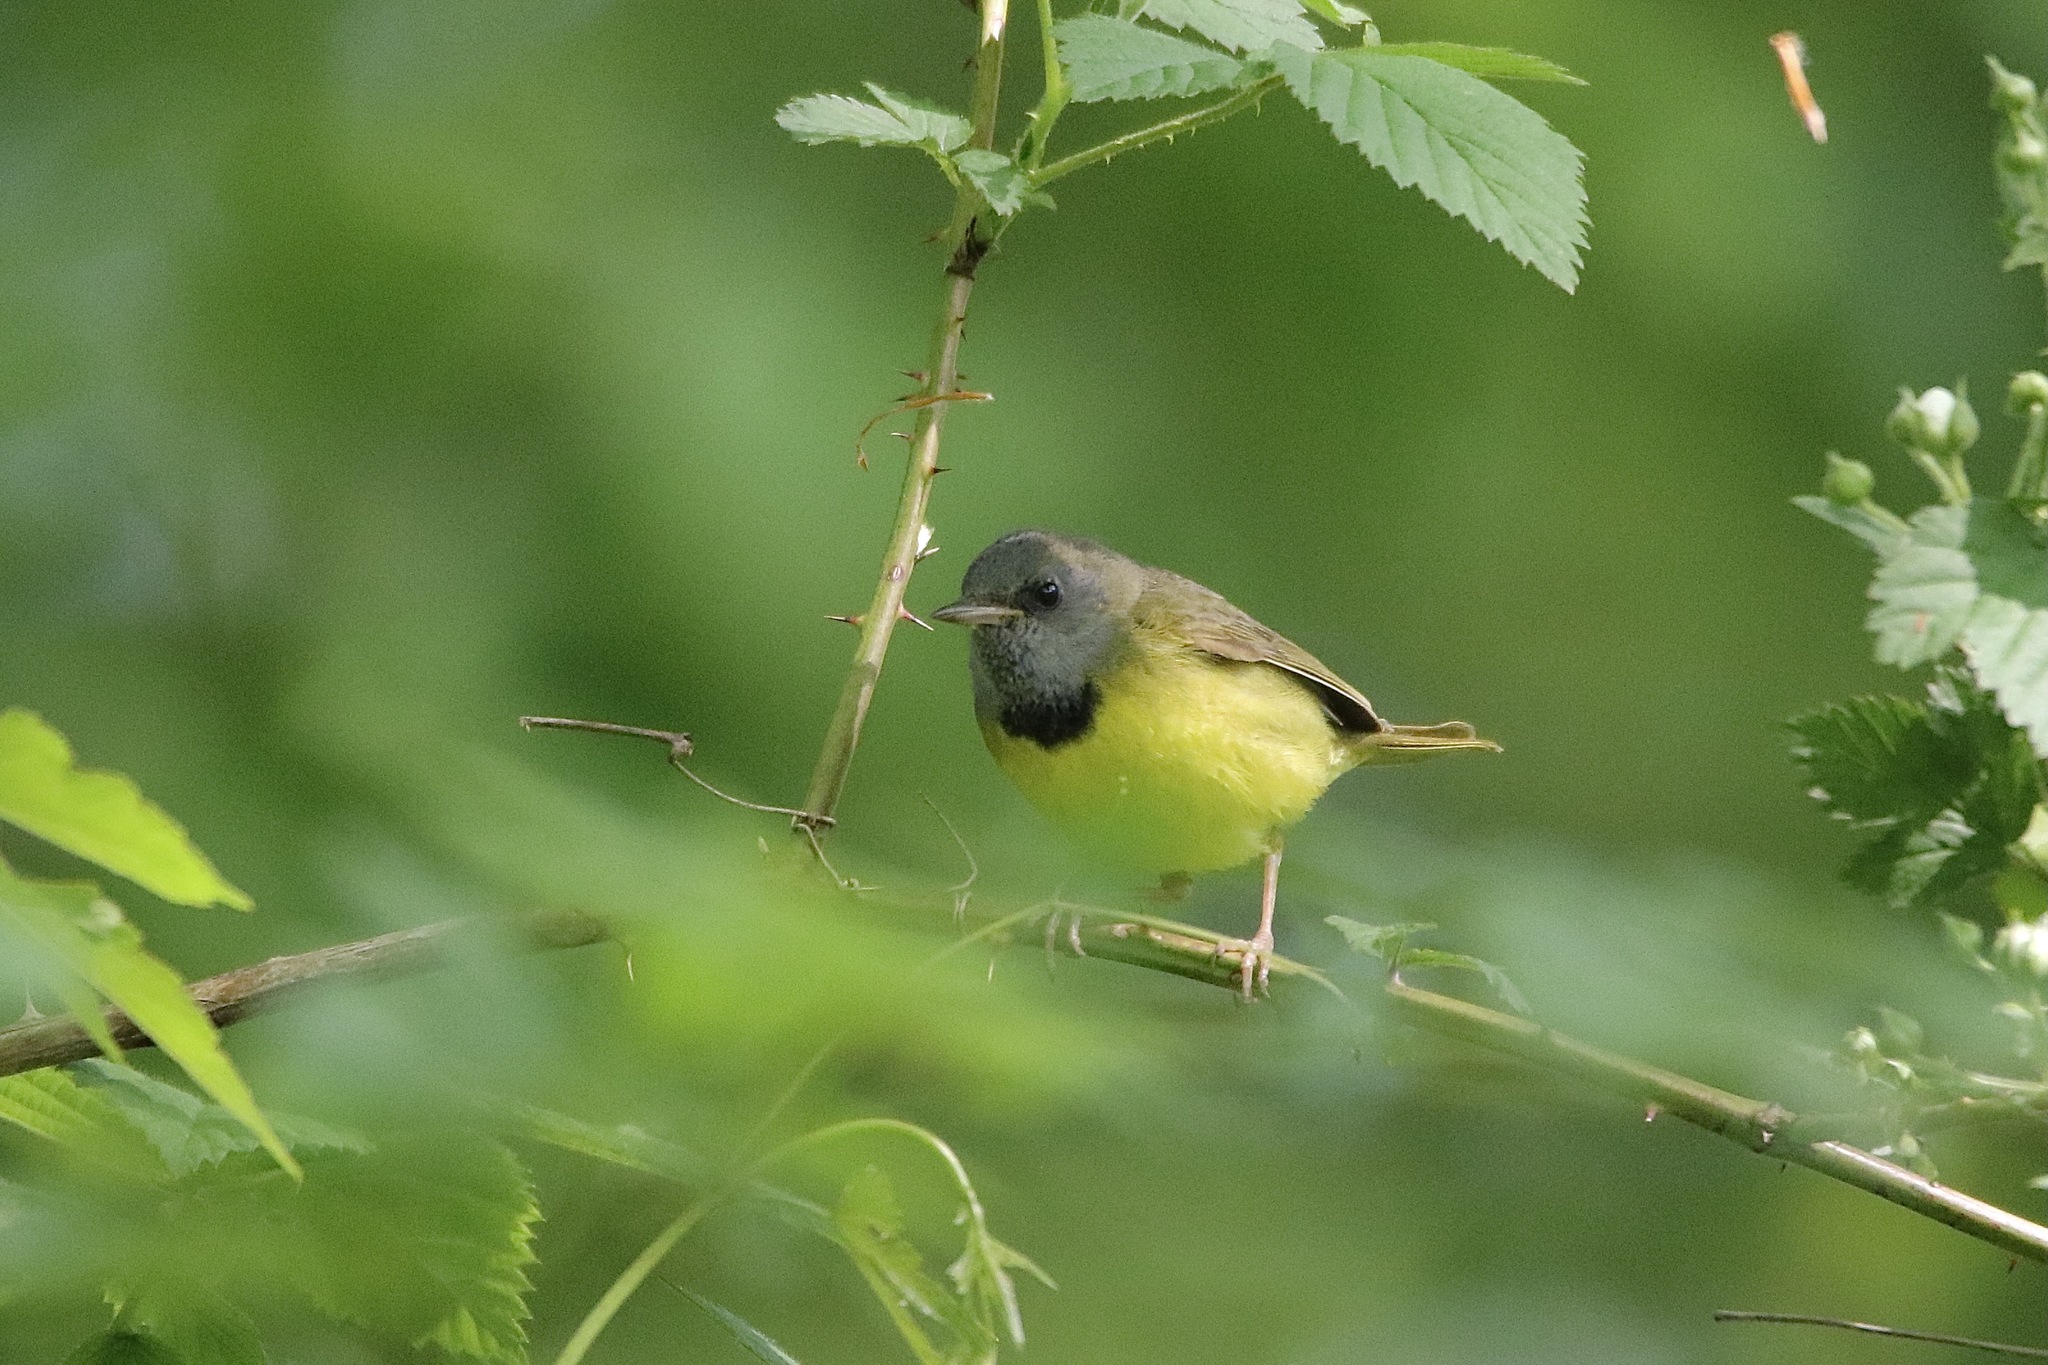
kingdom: Animalia
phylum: Chordata
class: Aves
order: Passeriformes
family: Parulidae
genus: Geothlypis
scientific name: Geothlypis philadelphia
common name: Mourning warbler
